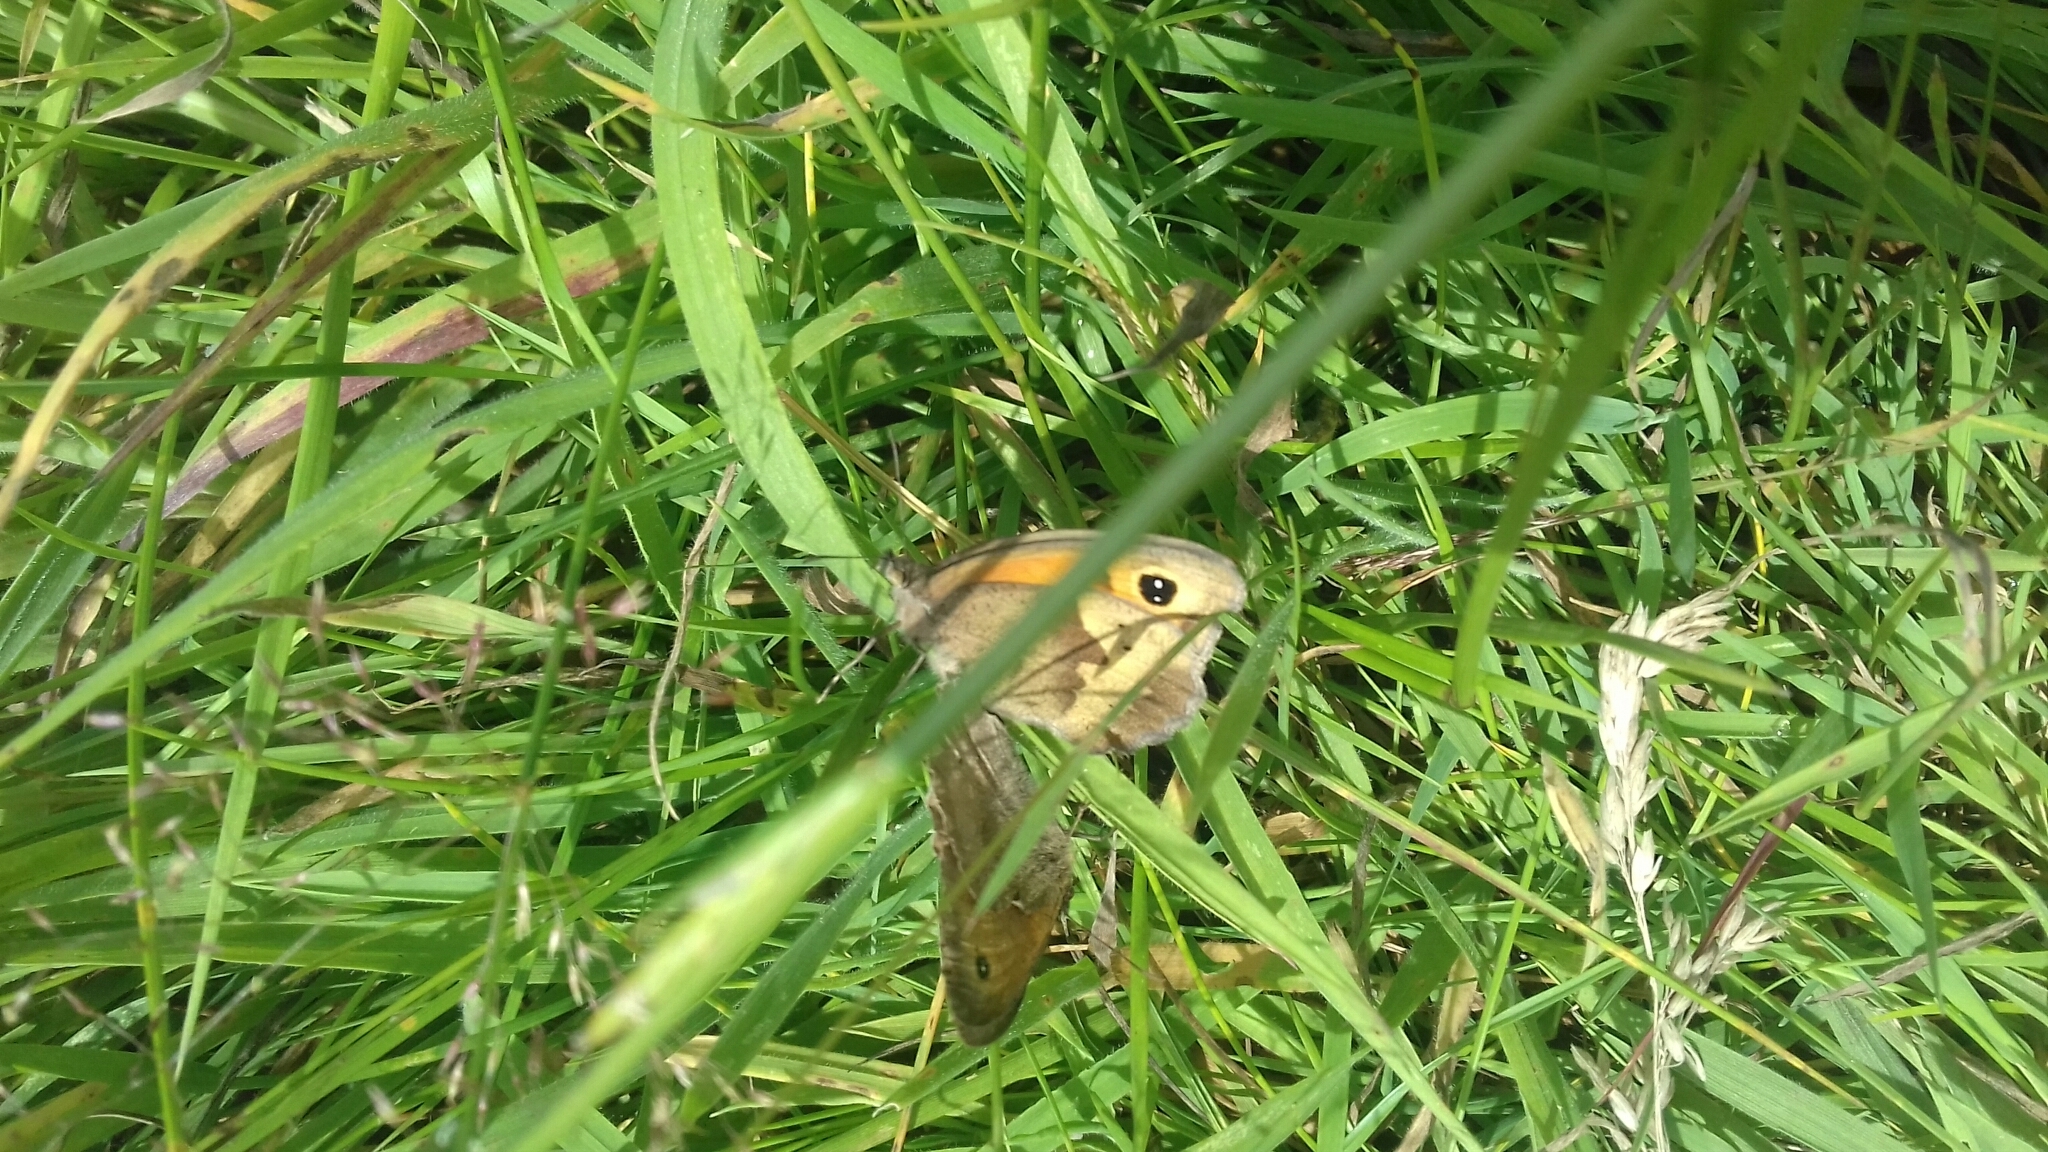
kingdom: Animalia
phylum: Arthropoda
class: Insecta
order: Lepidoptera
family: Nymphalidae
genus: Maniola
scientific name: Maniola jurtina
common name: Meadow brown
